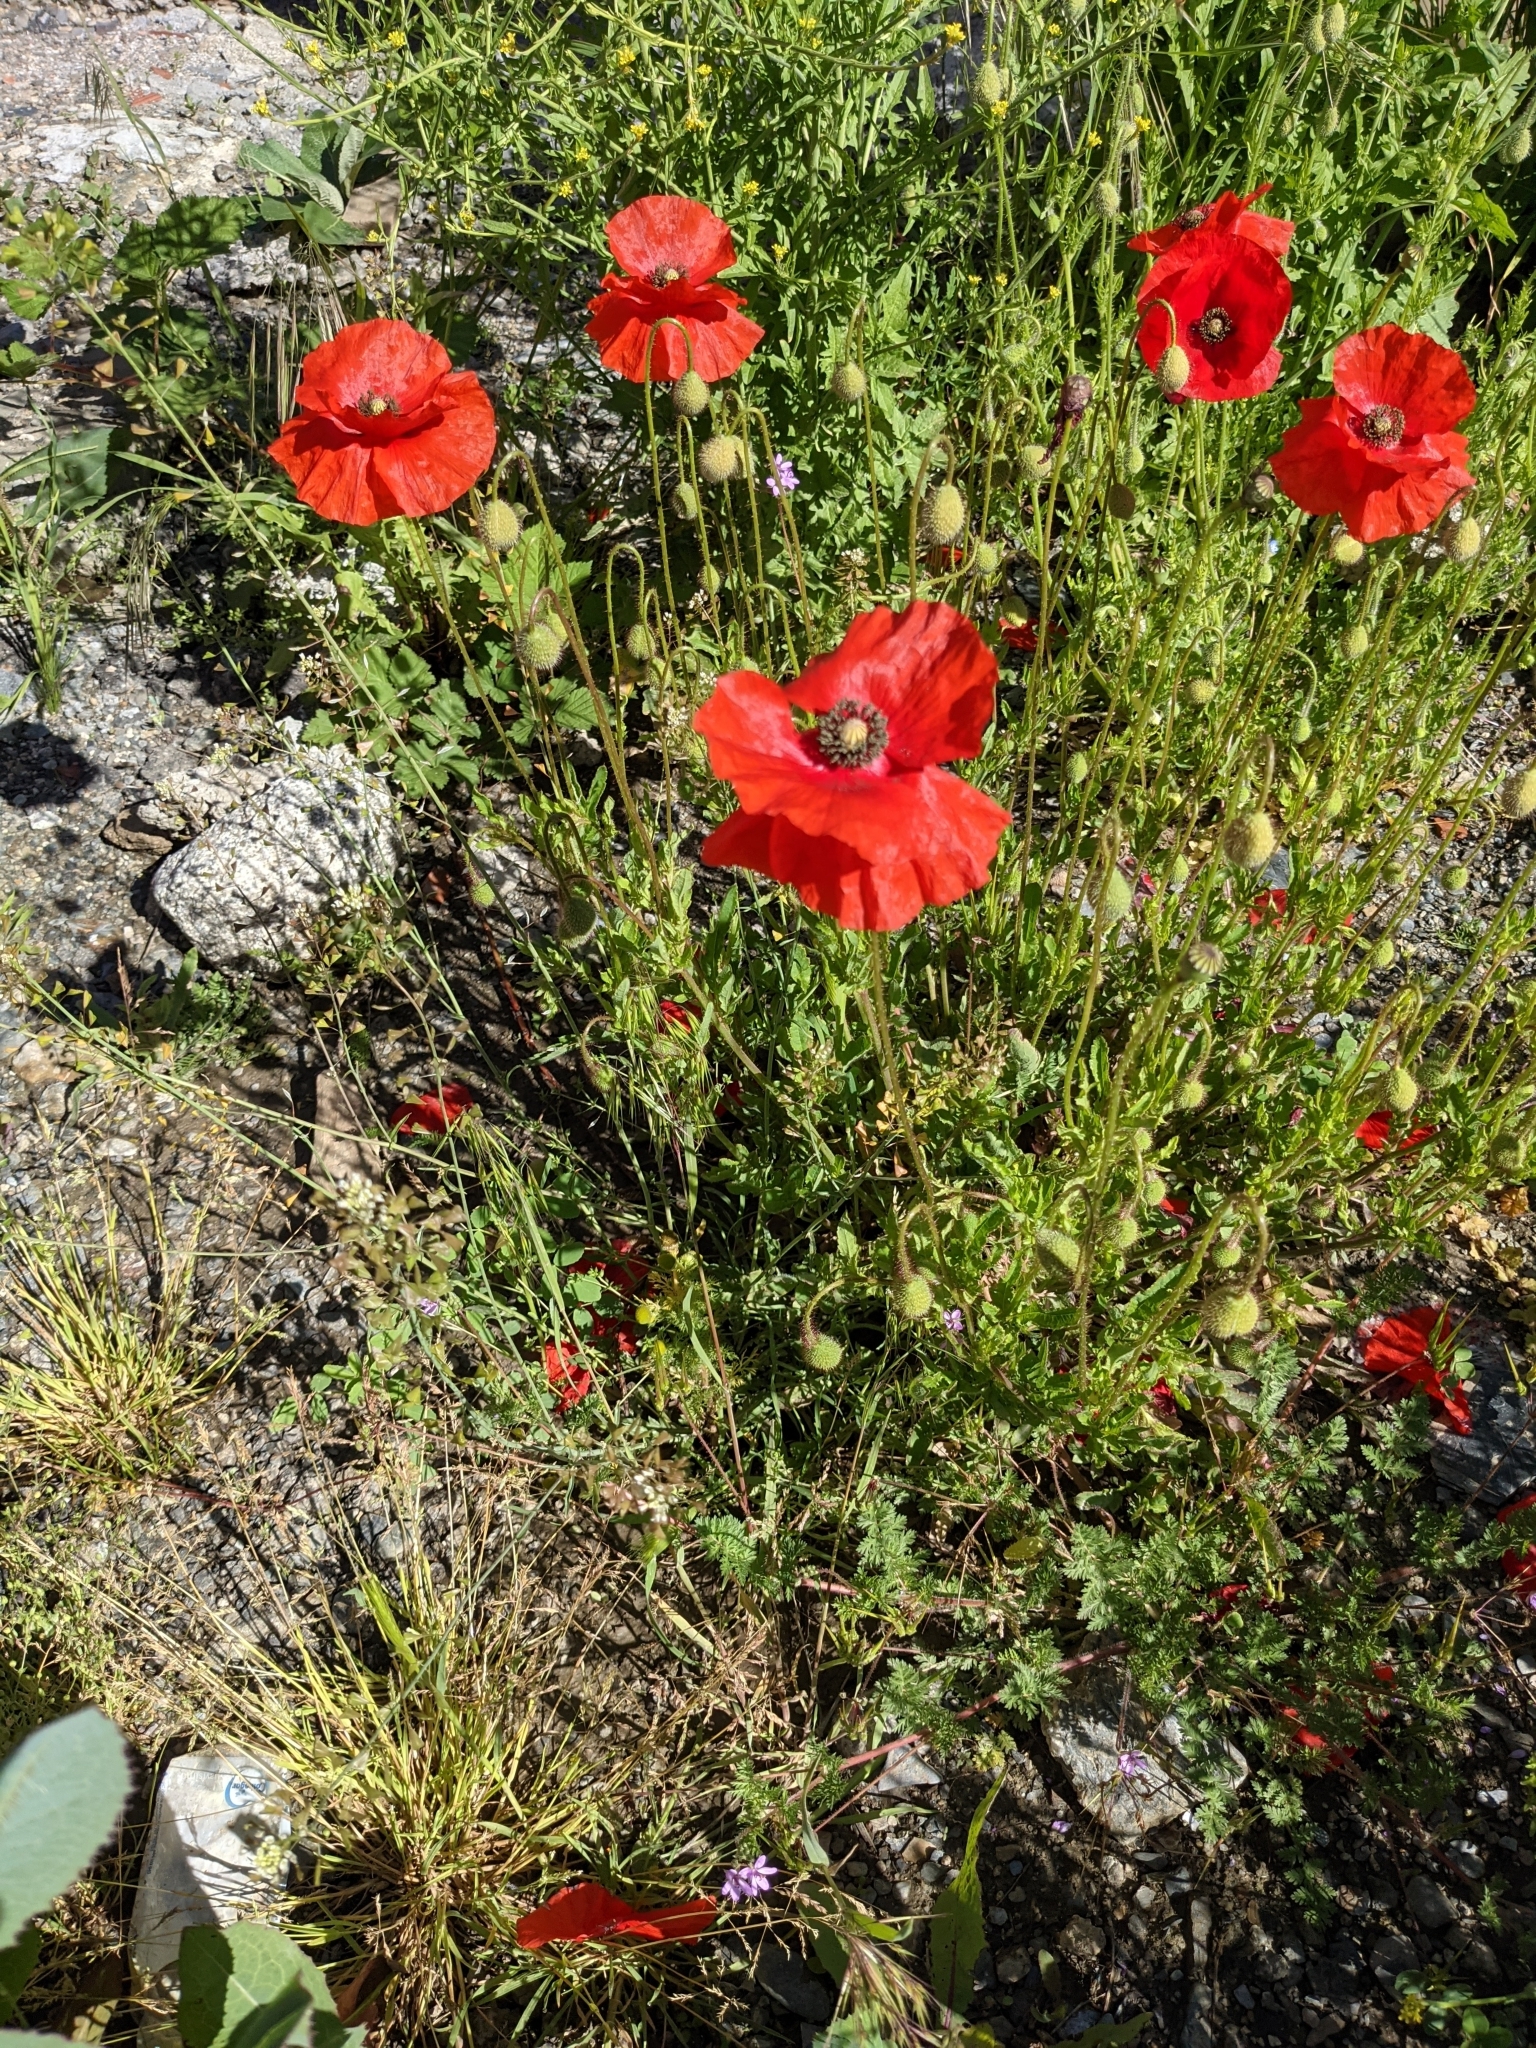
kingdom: Plantae
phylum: Tracheophyta
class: Magnoliopsida
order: Ranunculales
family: Papaveraceae
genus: Papaver
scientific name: Papaver rhoeas
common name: Corn poppy
